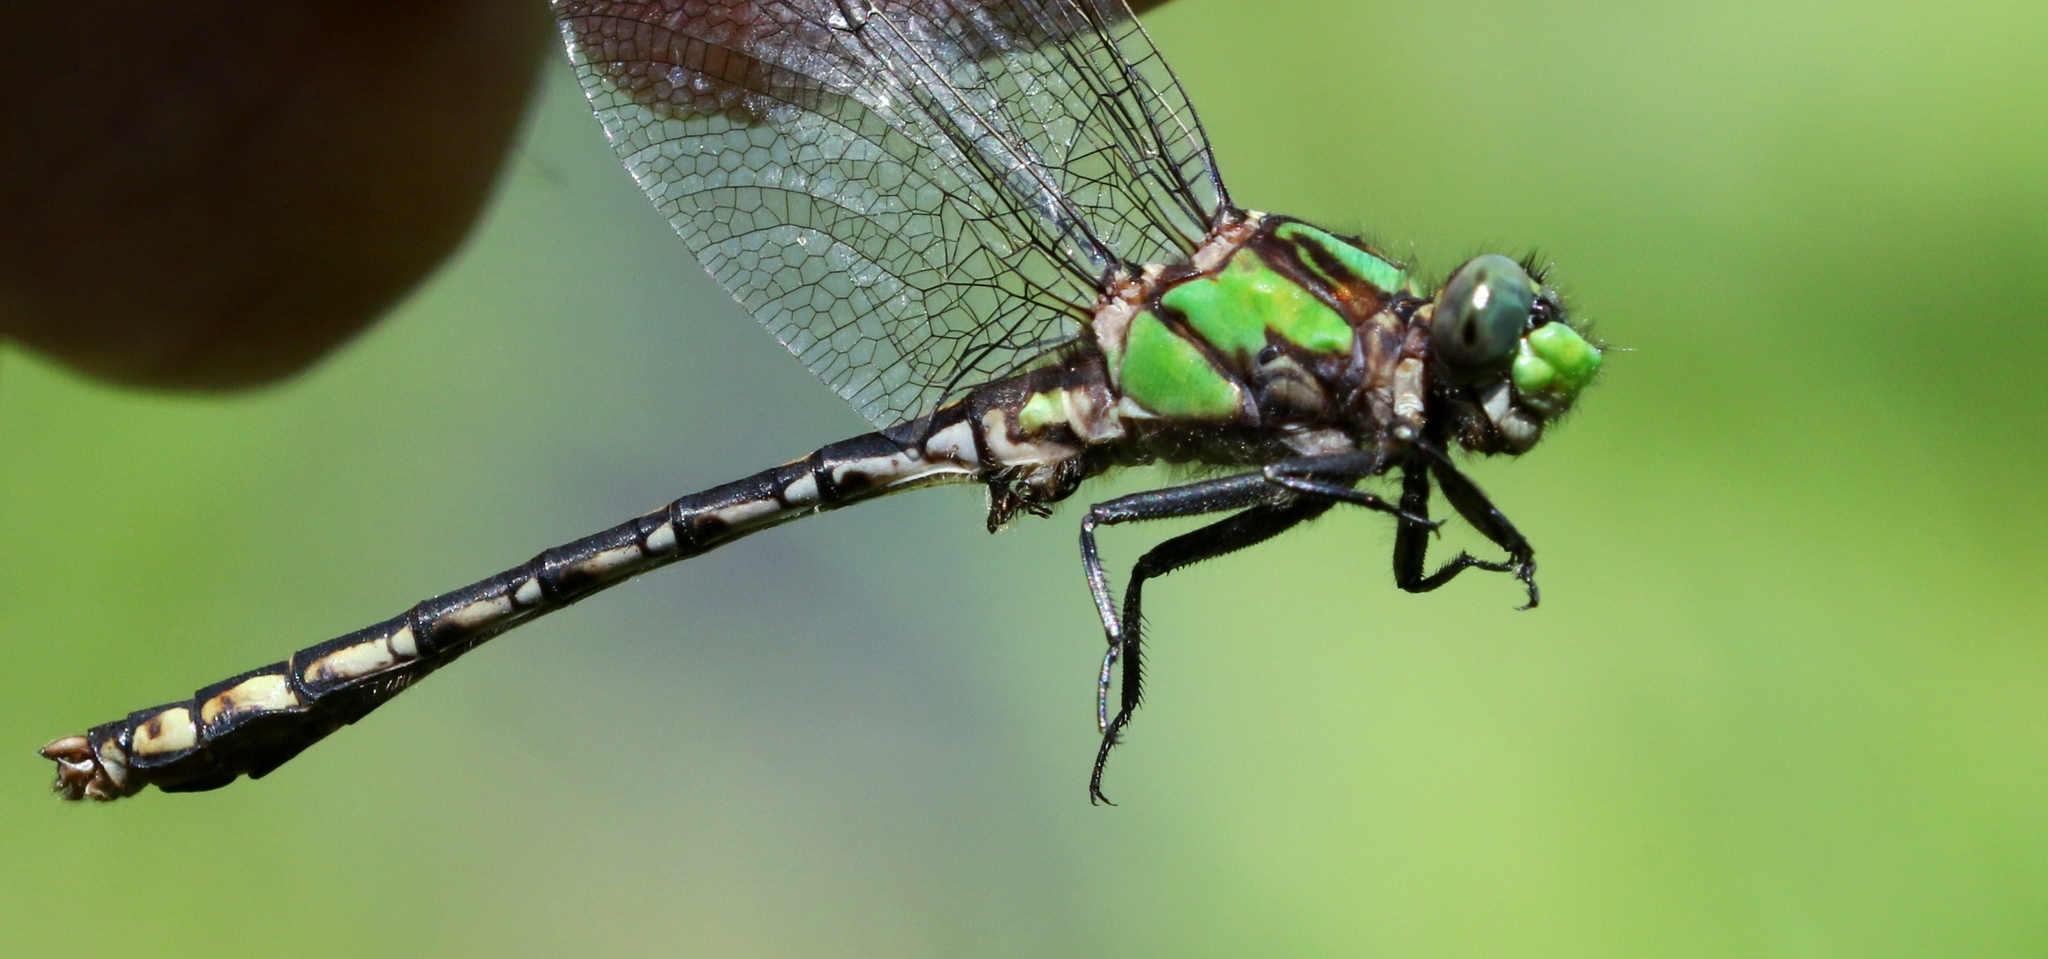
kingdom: Animalia
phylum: Arthropoda
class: Insecta
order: Odonata
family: Gomphidae
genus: Ophiogomphus
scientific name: Ophiogomphus carolus
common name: Riffle snaketail
